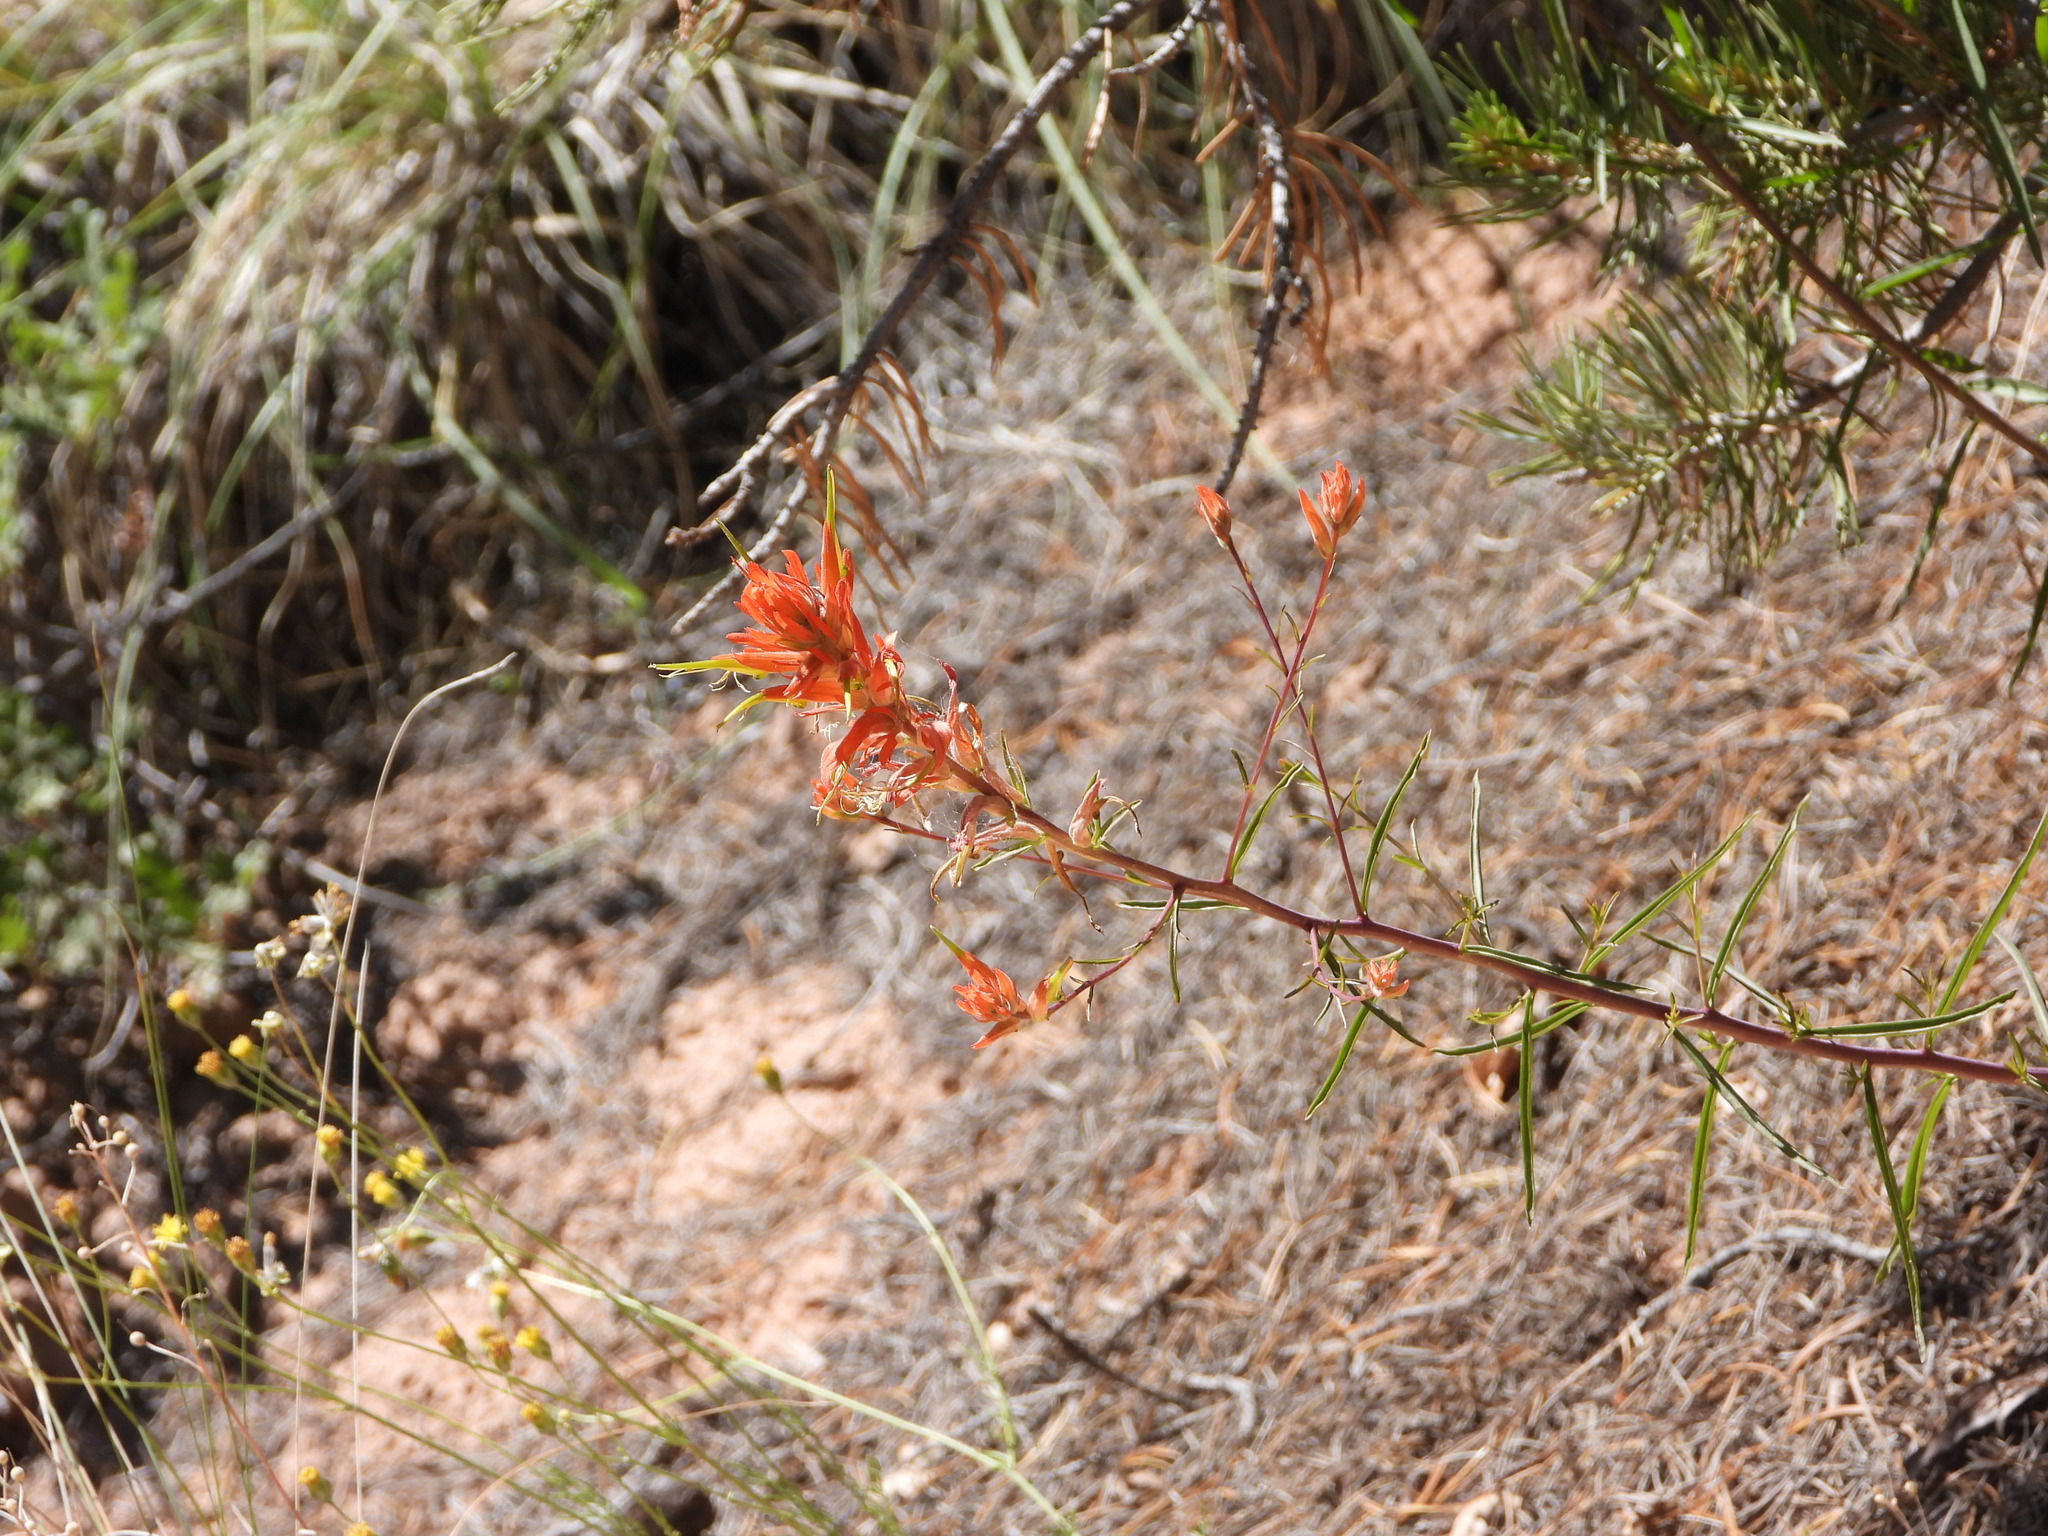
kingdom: Plantae
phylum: Tracheophyta
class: Magnoliopsida
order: Lamiales
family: Orobanchaceae
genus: Castilleja
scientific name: Castilleja linariifolia
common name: Wyoming paintbrush
